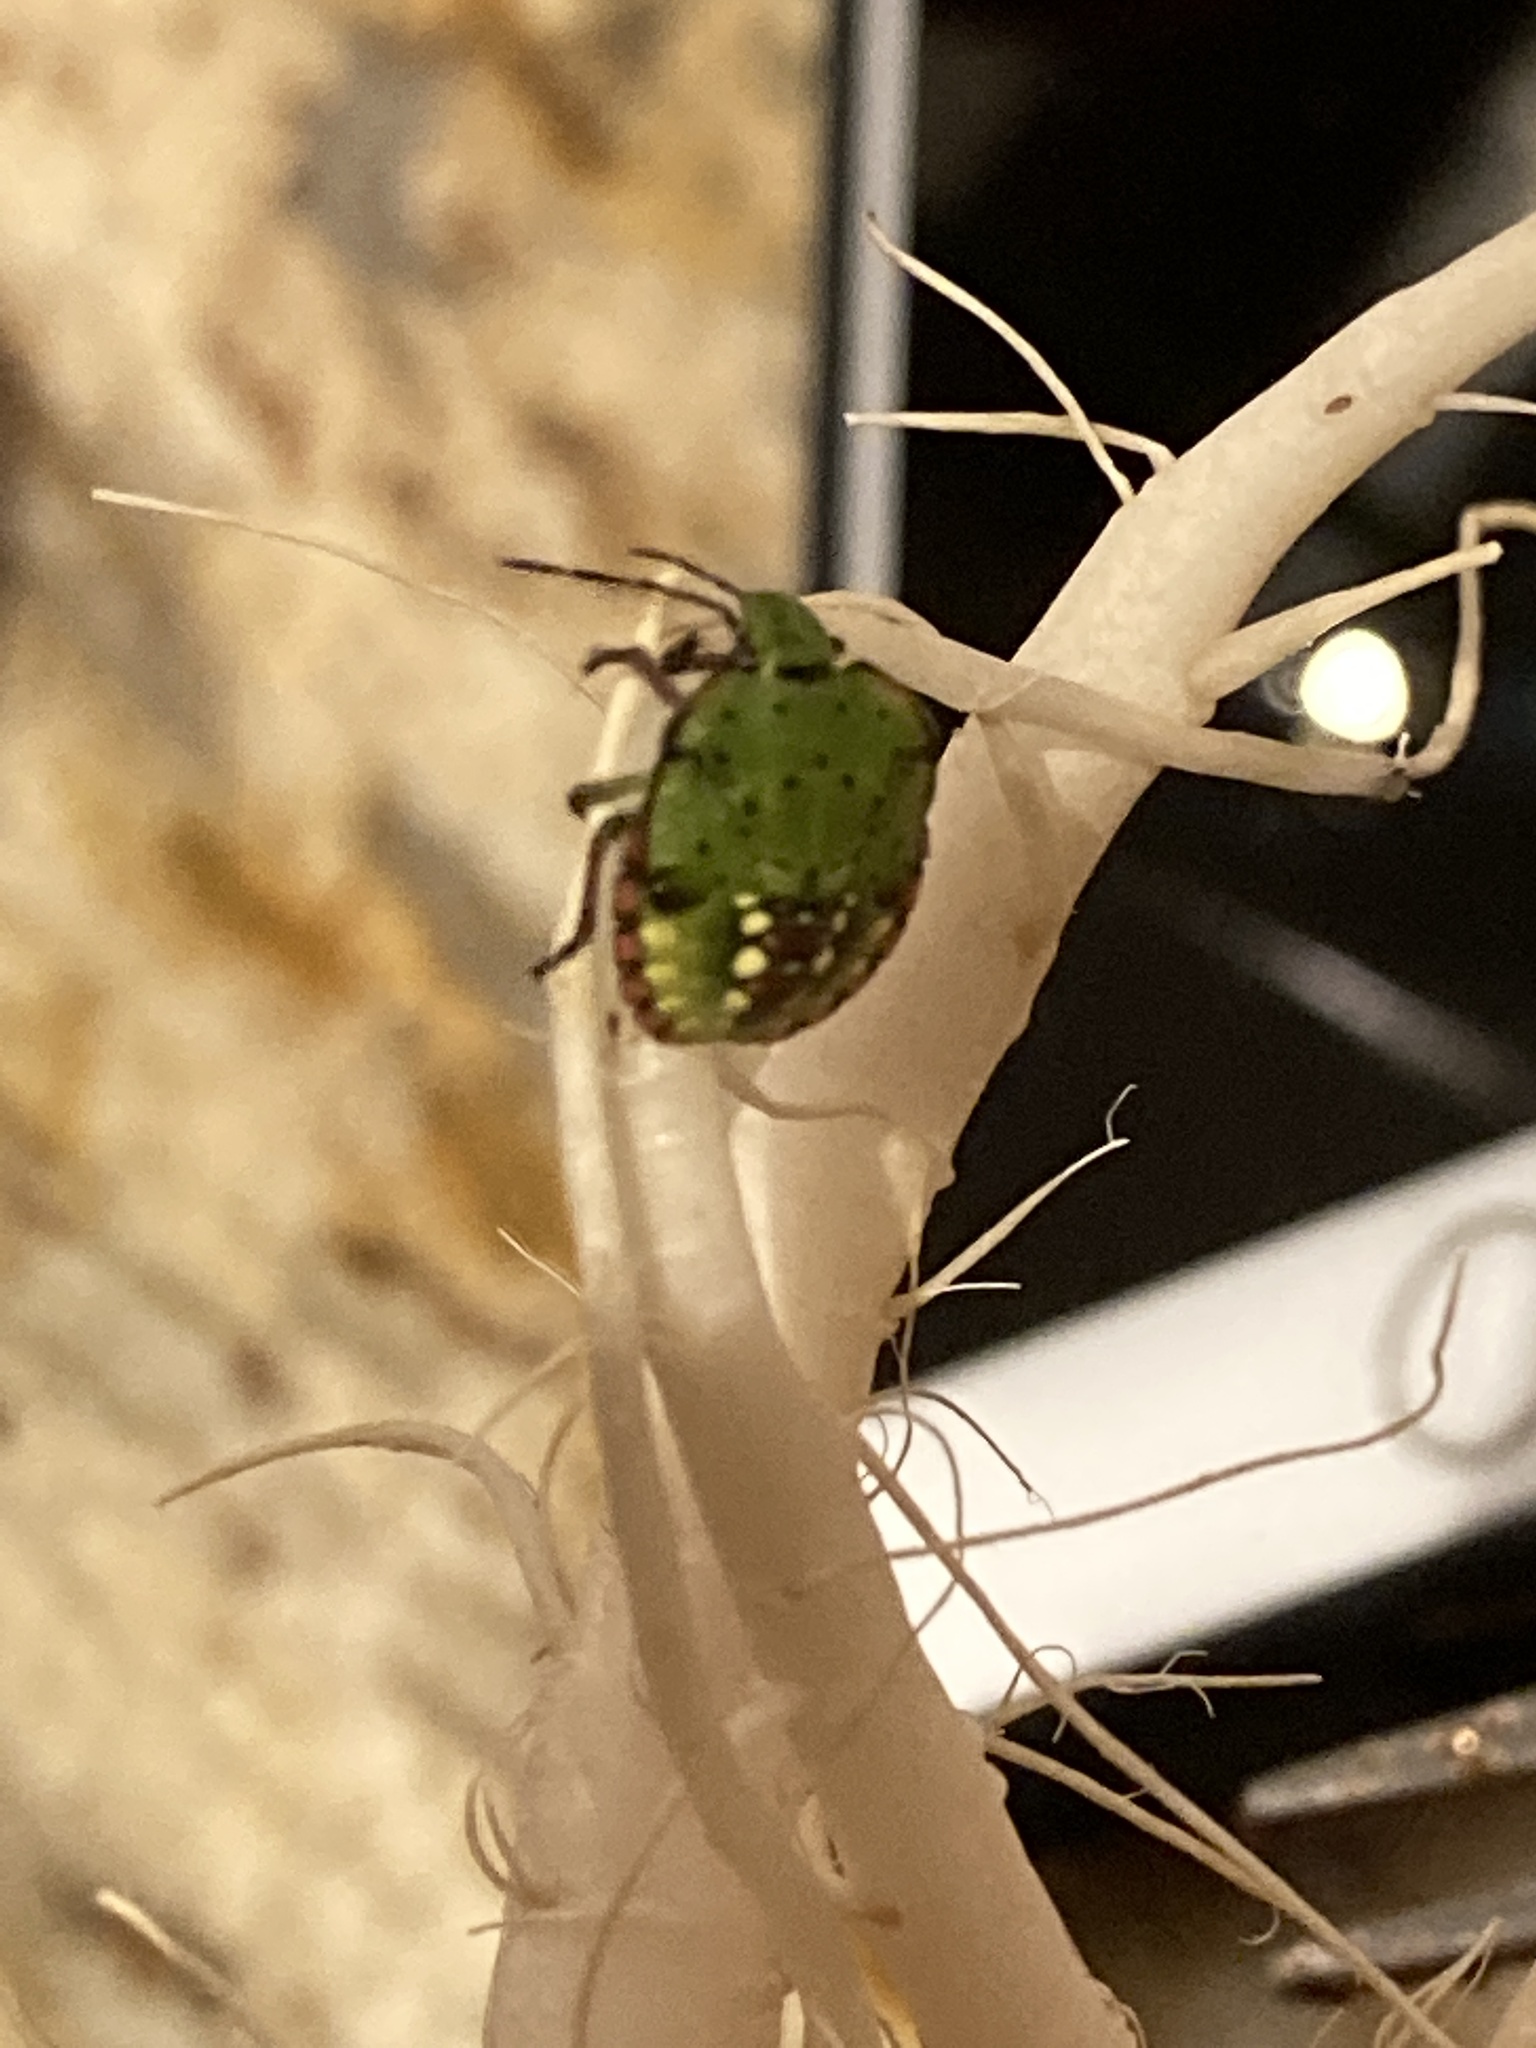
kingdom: Animalia
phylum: Arthropoda
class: Insecta
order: Hemiptera
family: Pentatomidae
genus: Nezara
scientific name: Nezara viridula
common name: Southern green stink bug
